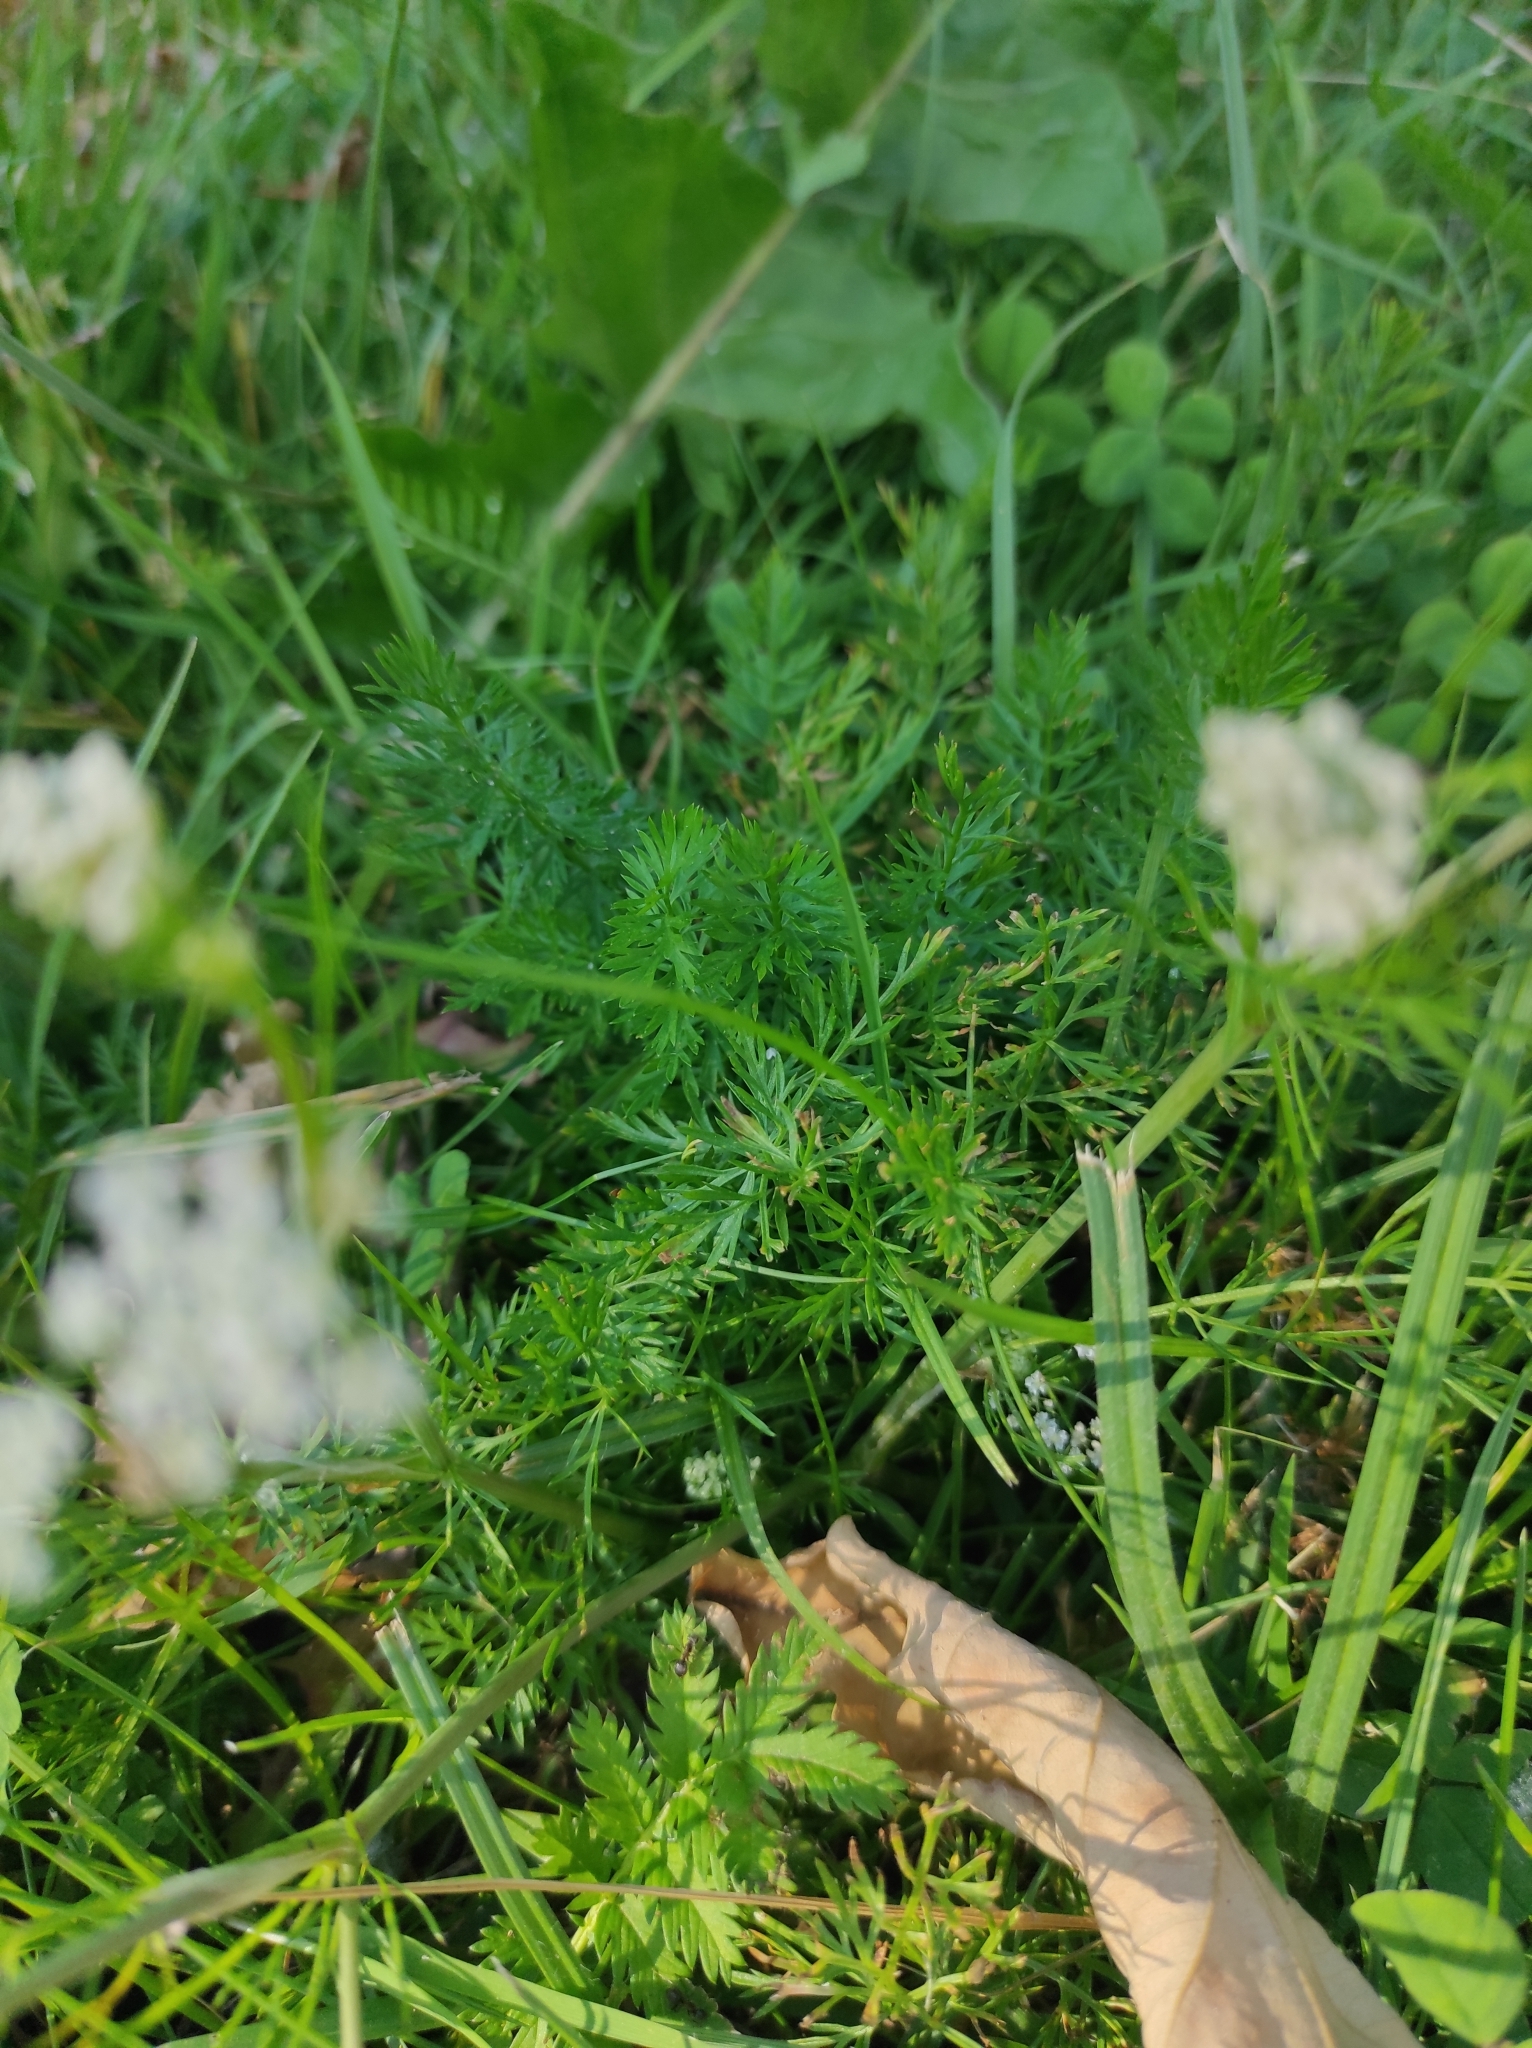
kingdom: Plantae
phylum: Tracheophyta
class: Magnoliopsida
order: Apiales
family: Apiaceae
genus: Carum
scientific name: Carum carvi
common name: Caraway
